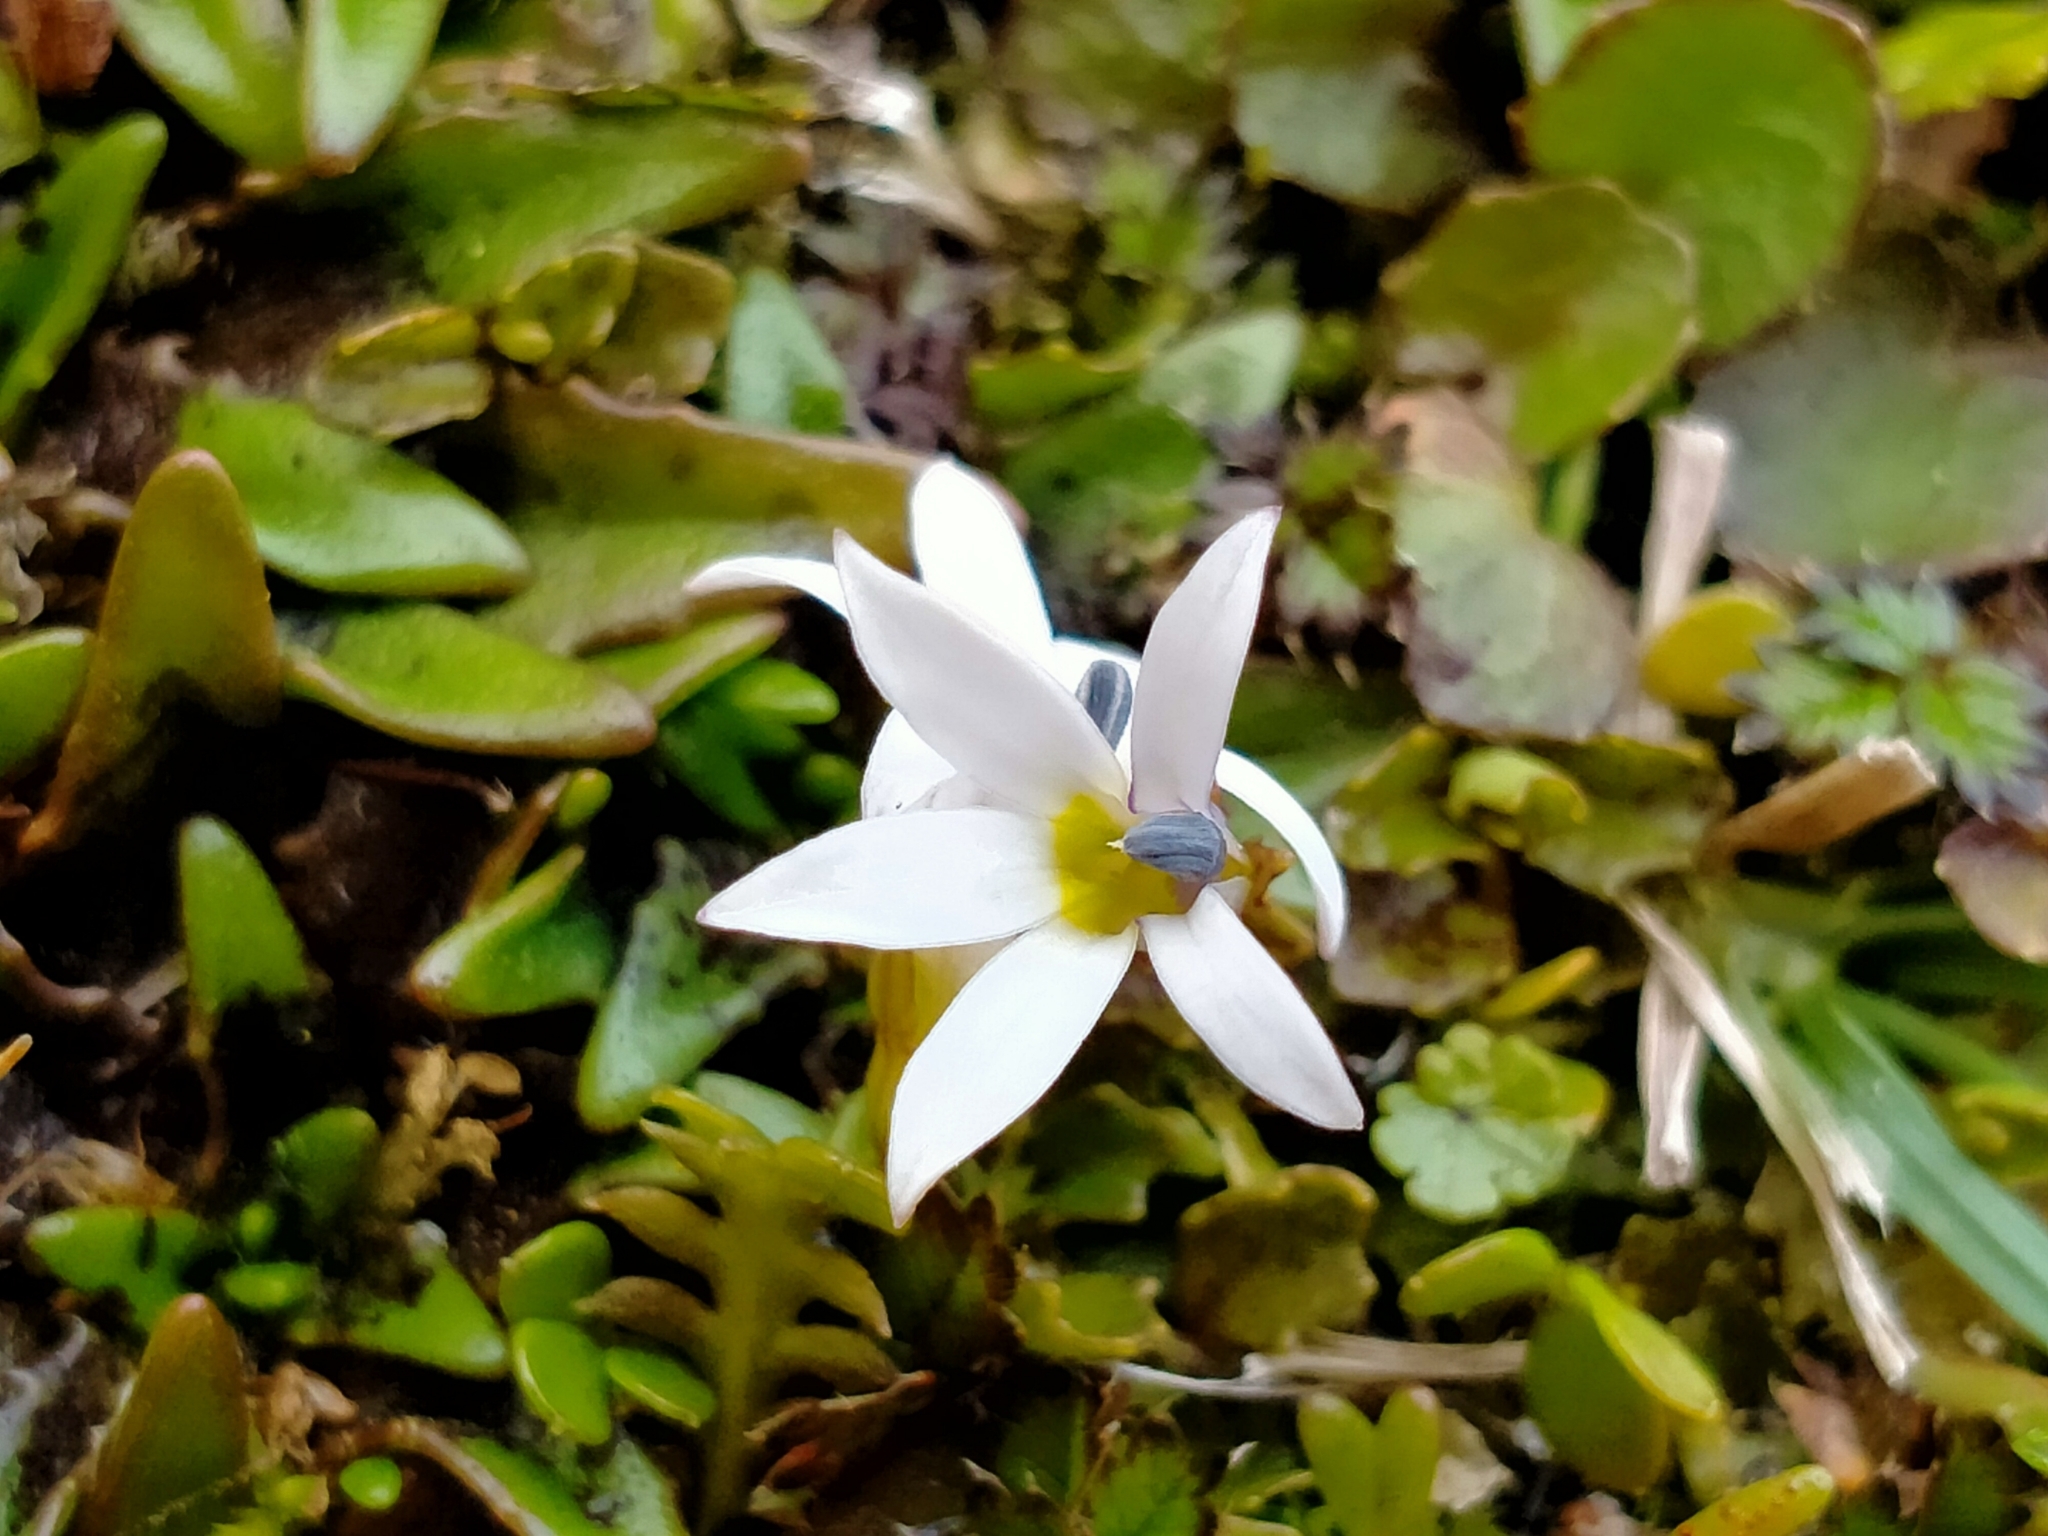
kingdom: Plantae
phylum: Tracheophyta
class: Magnoliopsida
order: Asterales
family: Campanulaceae
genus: Lobelia
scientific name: Lobelia angulata
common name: Lawn lobelia
